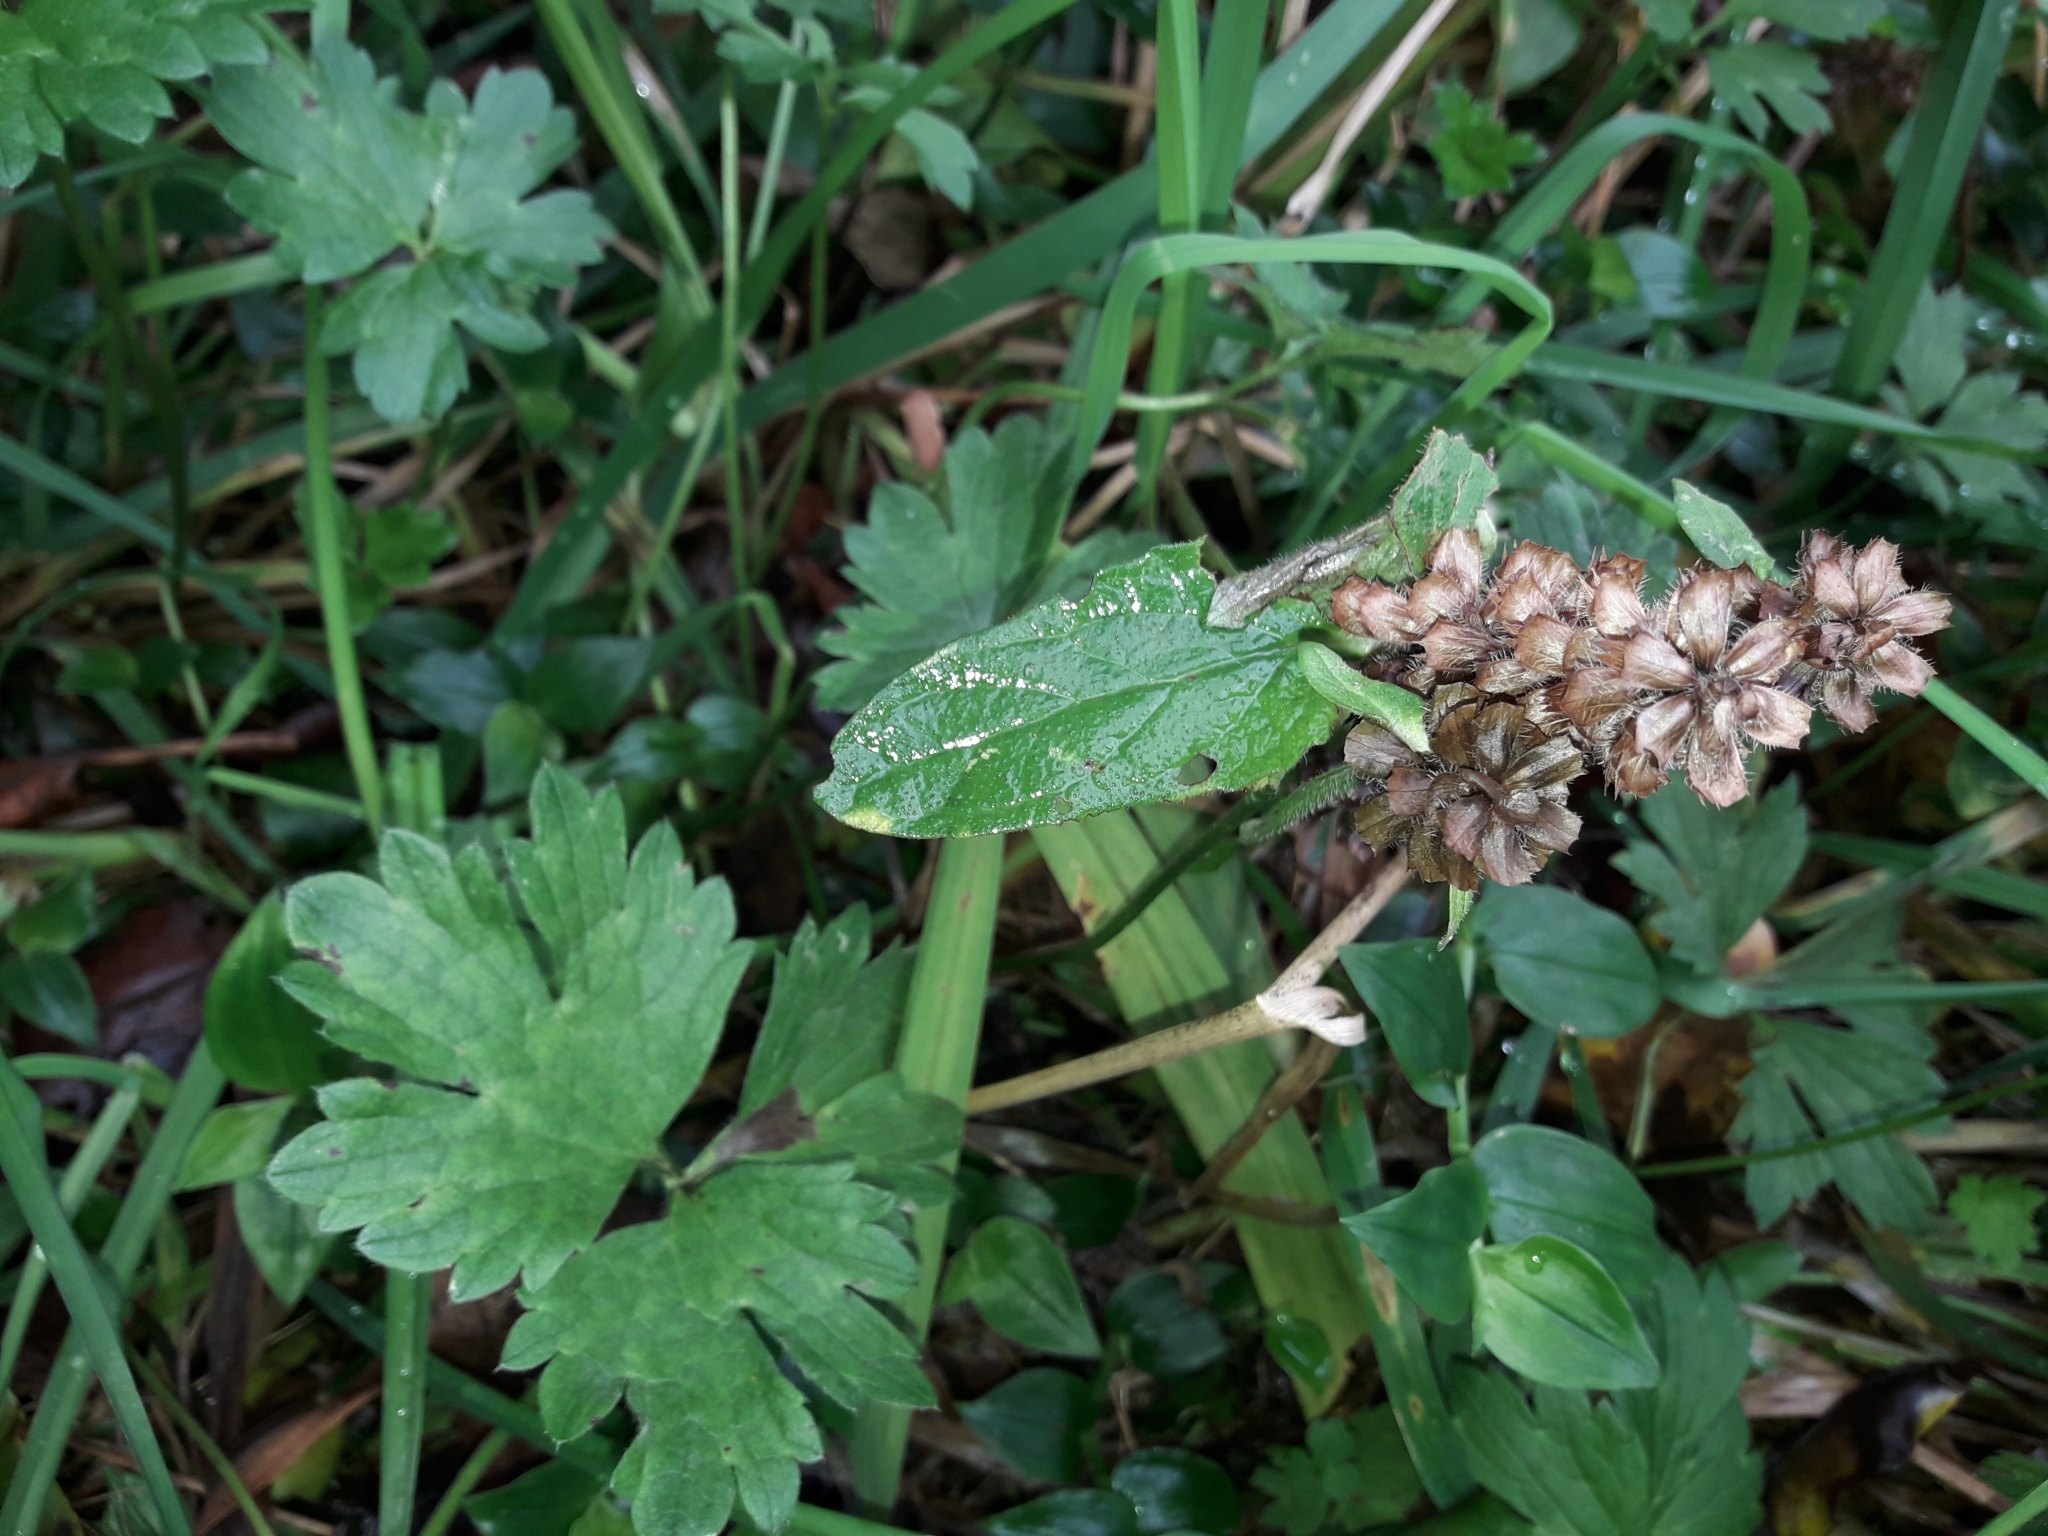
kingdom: Plantae
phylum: Tracheophyta
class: Magnoliopsida
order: Lamiales
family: Lamiaceae
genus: Prunella
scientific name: Prunella vulgaris
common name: Heal-all
